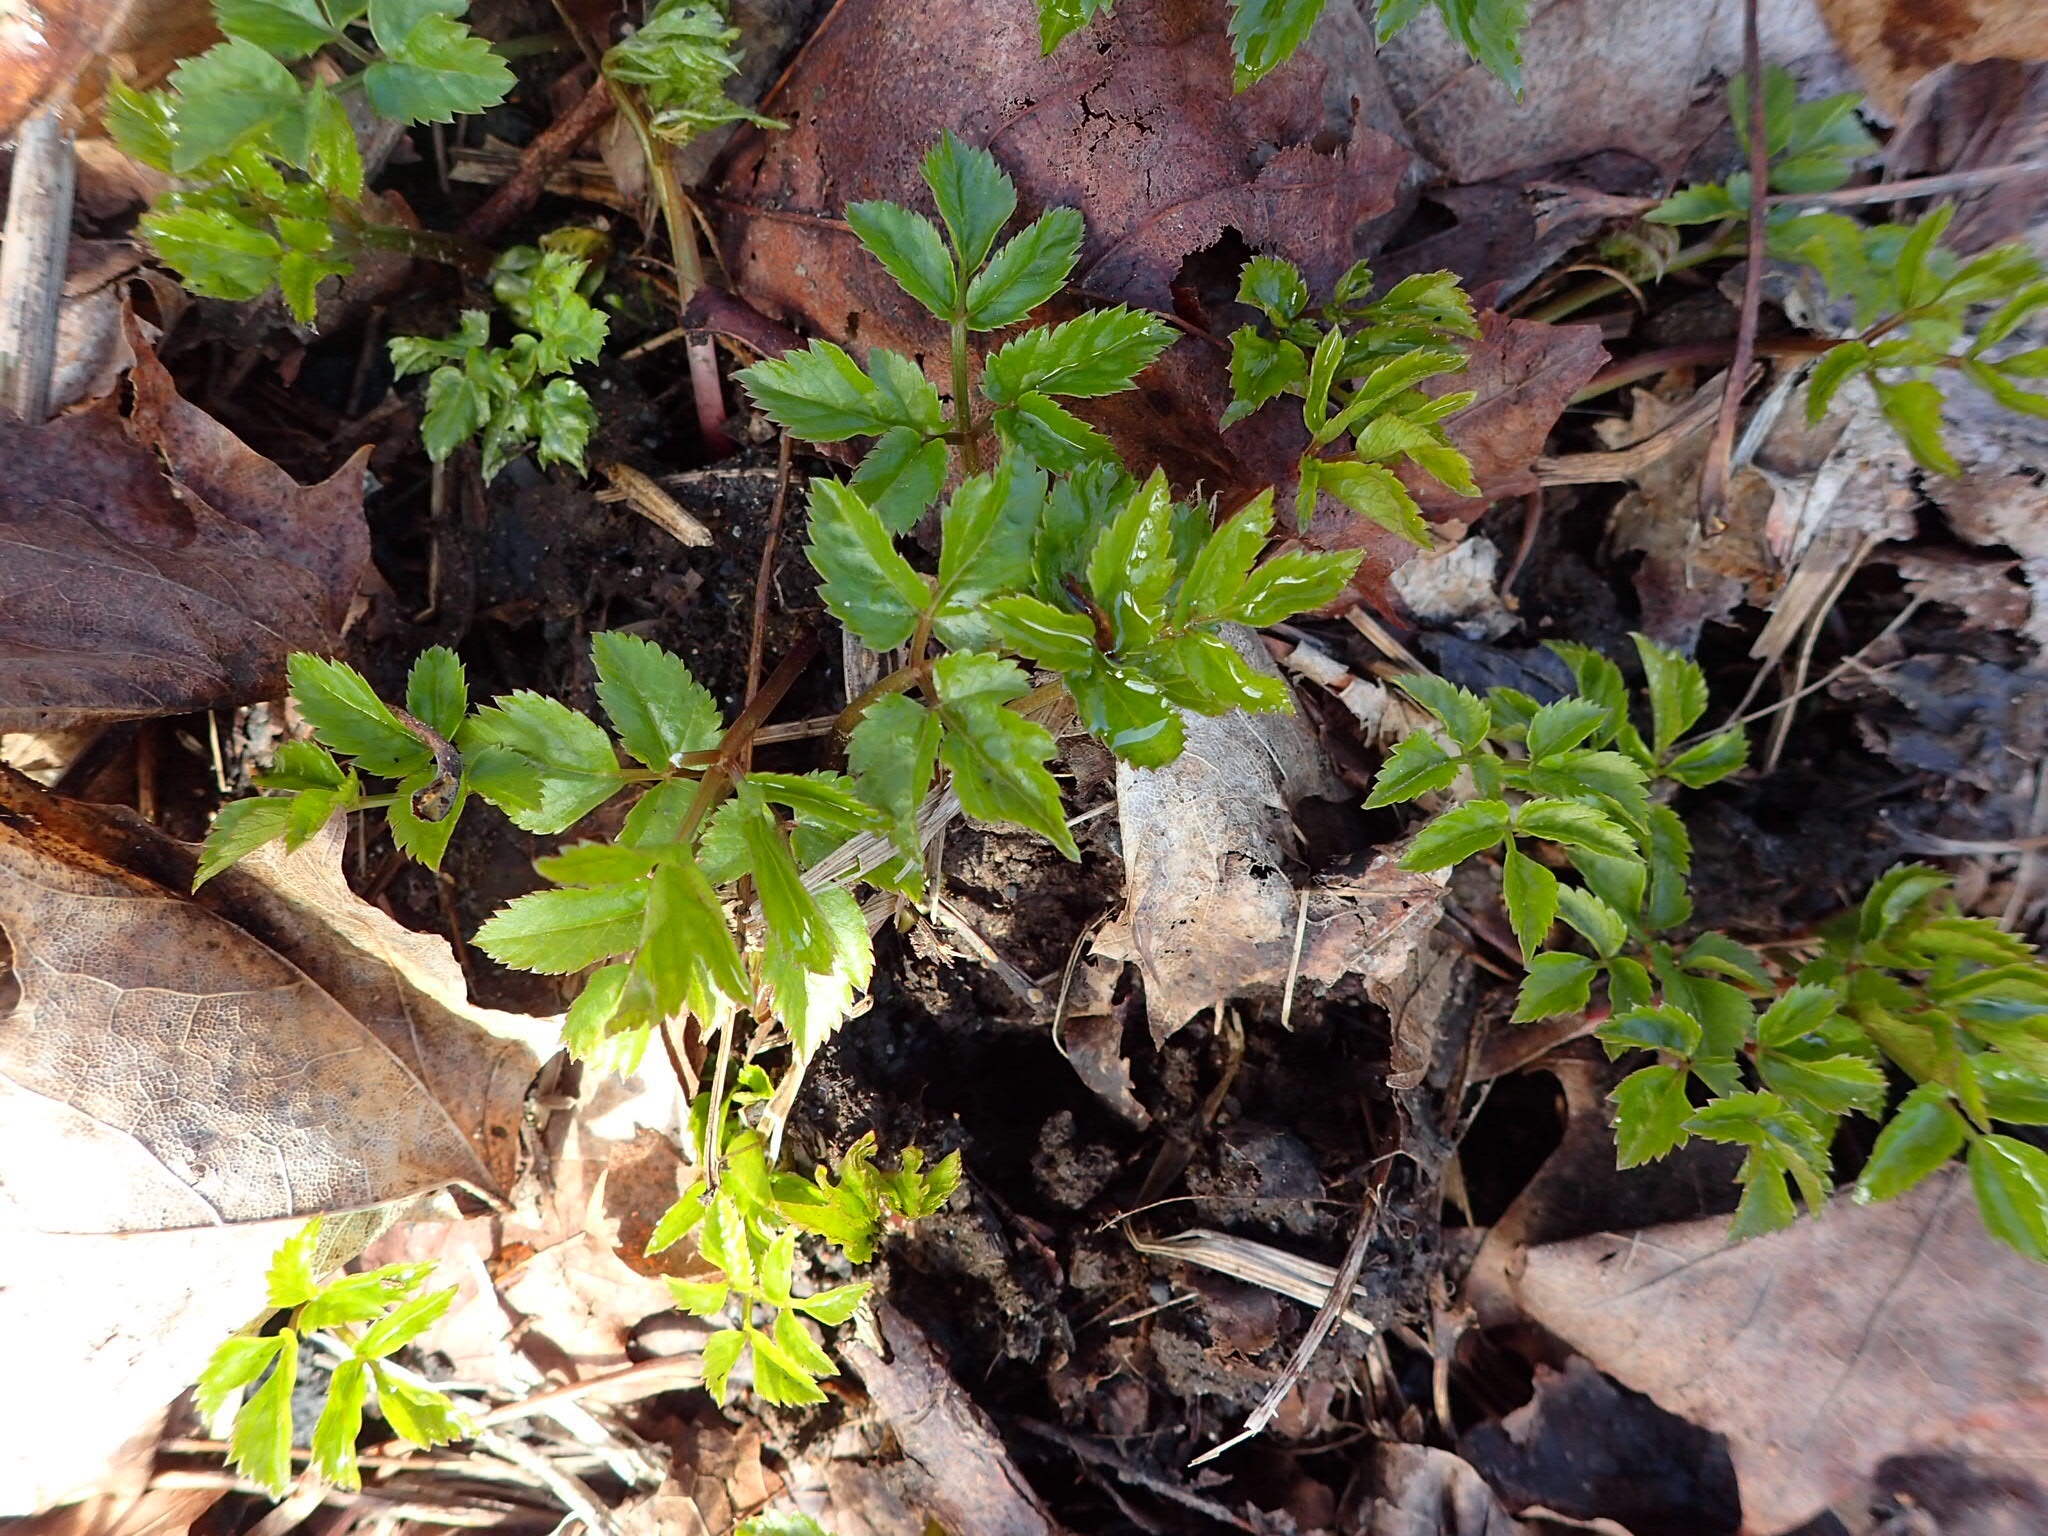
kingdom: Plantae
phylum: Tracheophyta
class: Magnoliopsida
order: Apiales
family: Apiaceae
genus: Aegopodium
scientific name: Aegopodium podagraria
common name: Ground-elder
